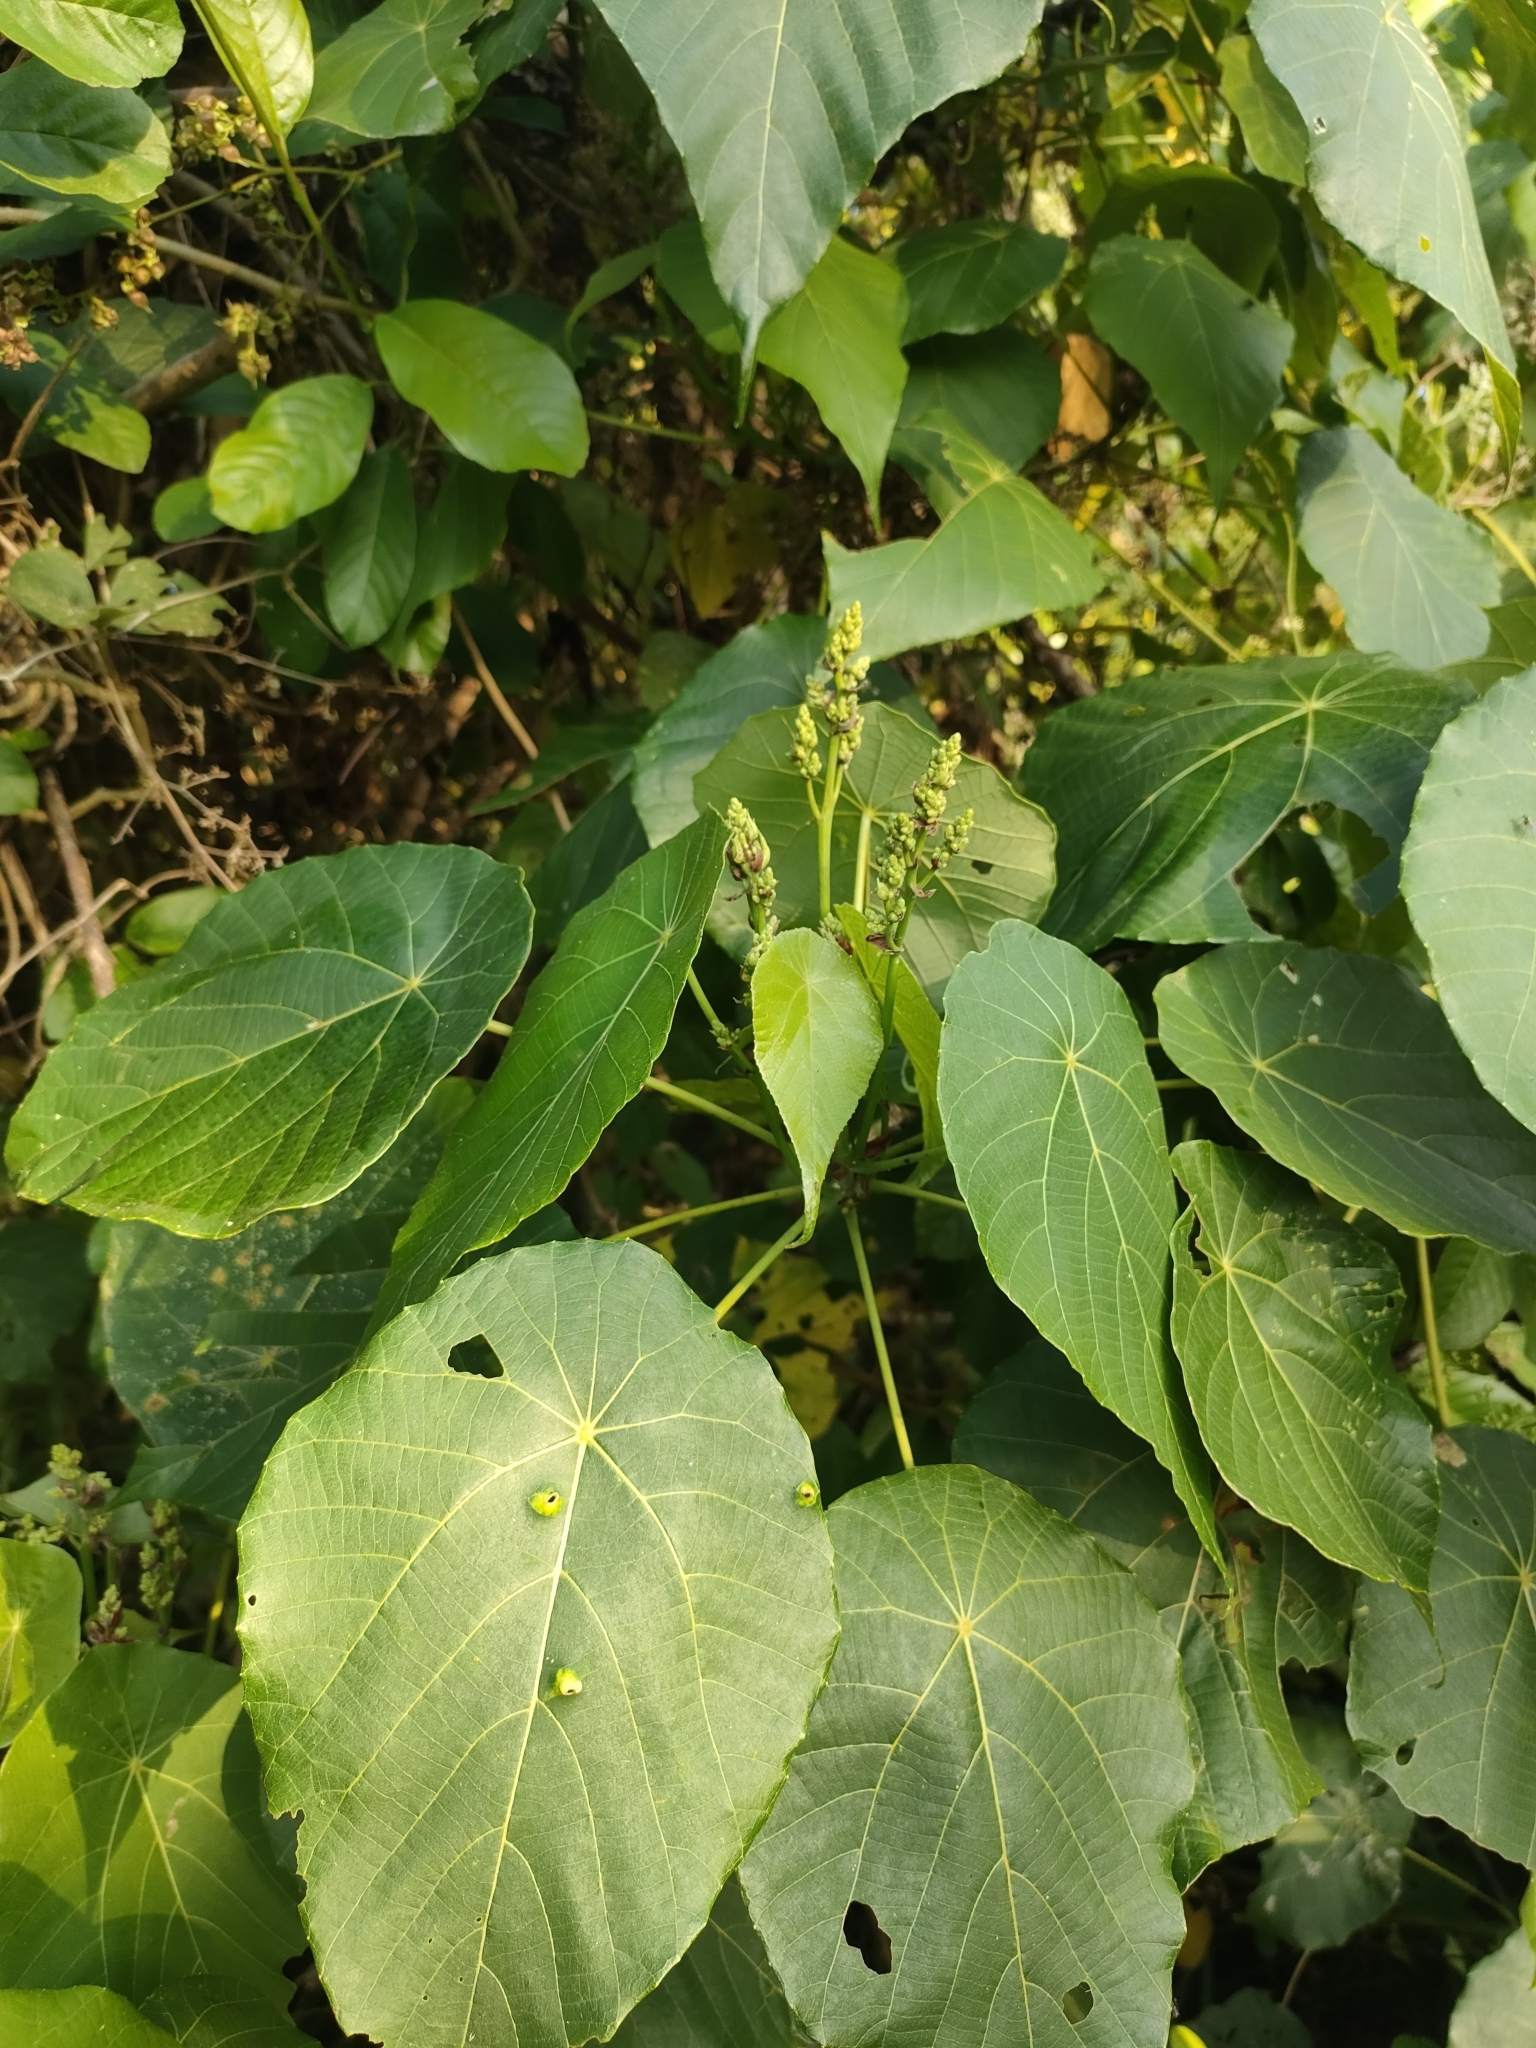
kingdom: Plantae
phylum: Tracheophyta
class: Magnoliopsida
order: Malpighiales
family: Euphorbiaceae
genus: Macaranga
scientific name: Macaranga tanarius
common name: Parasol leaf tree
